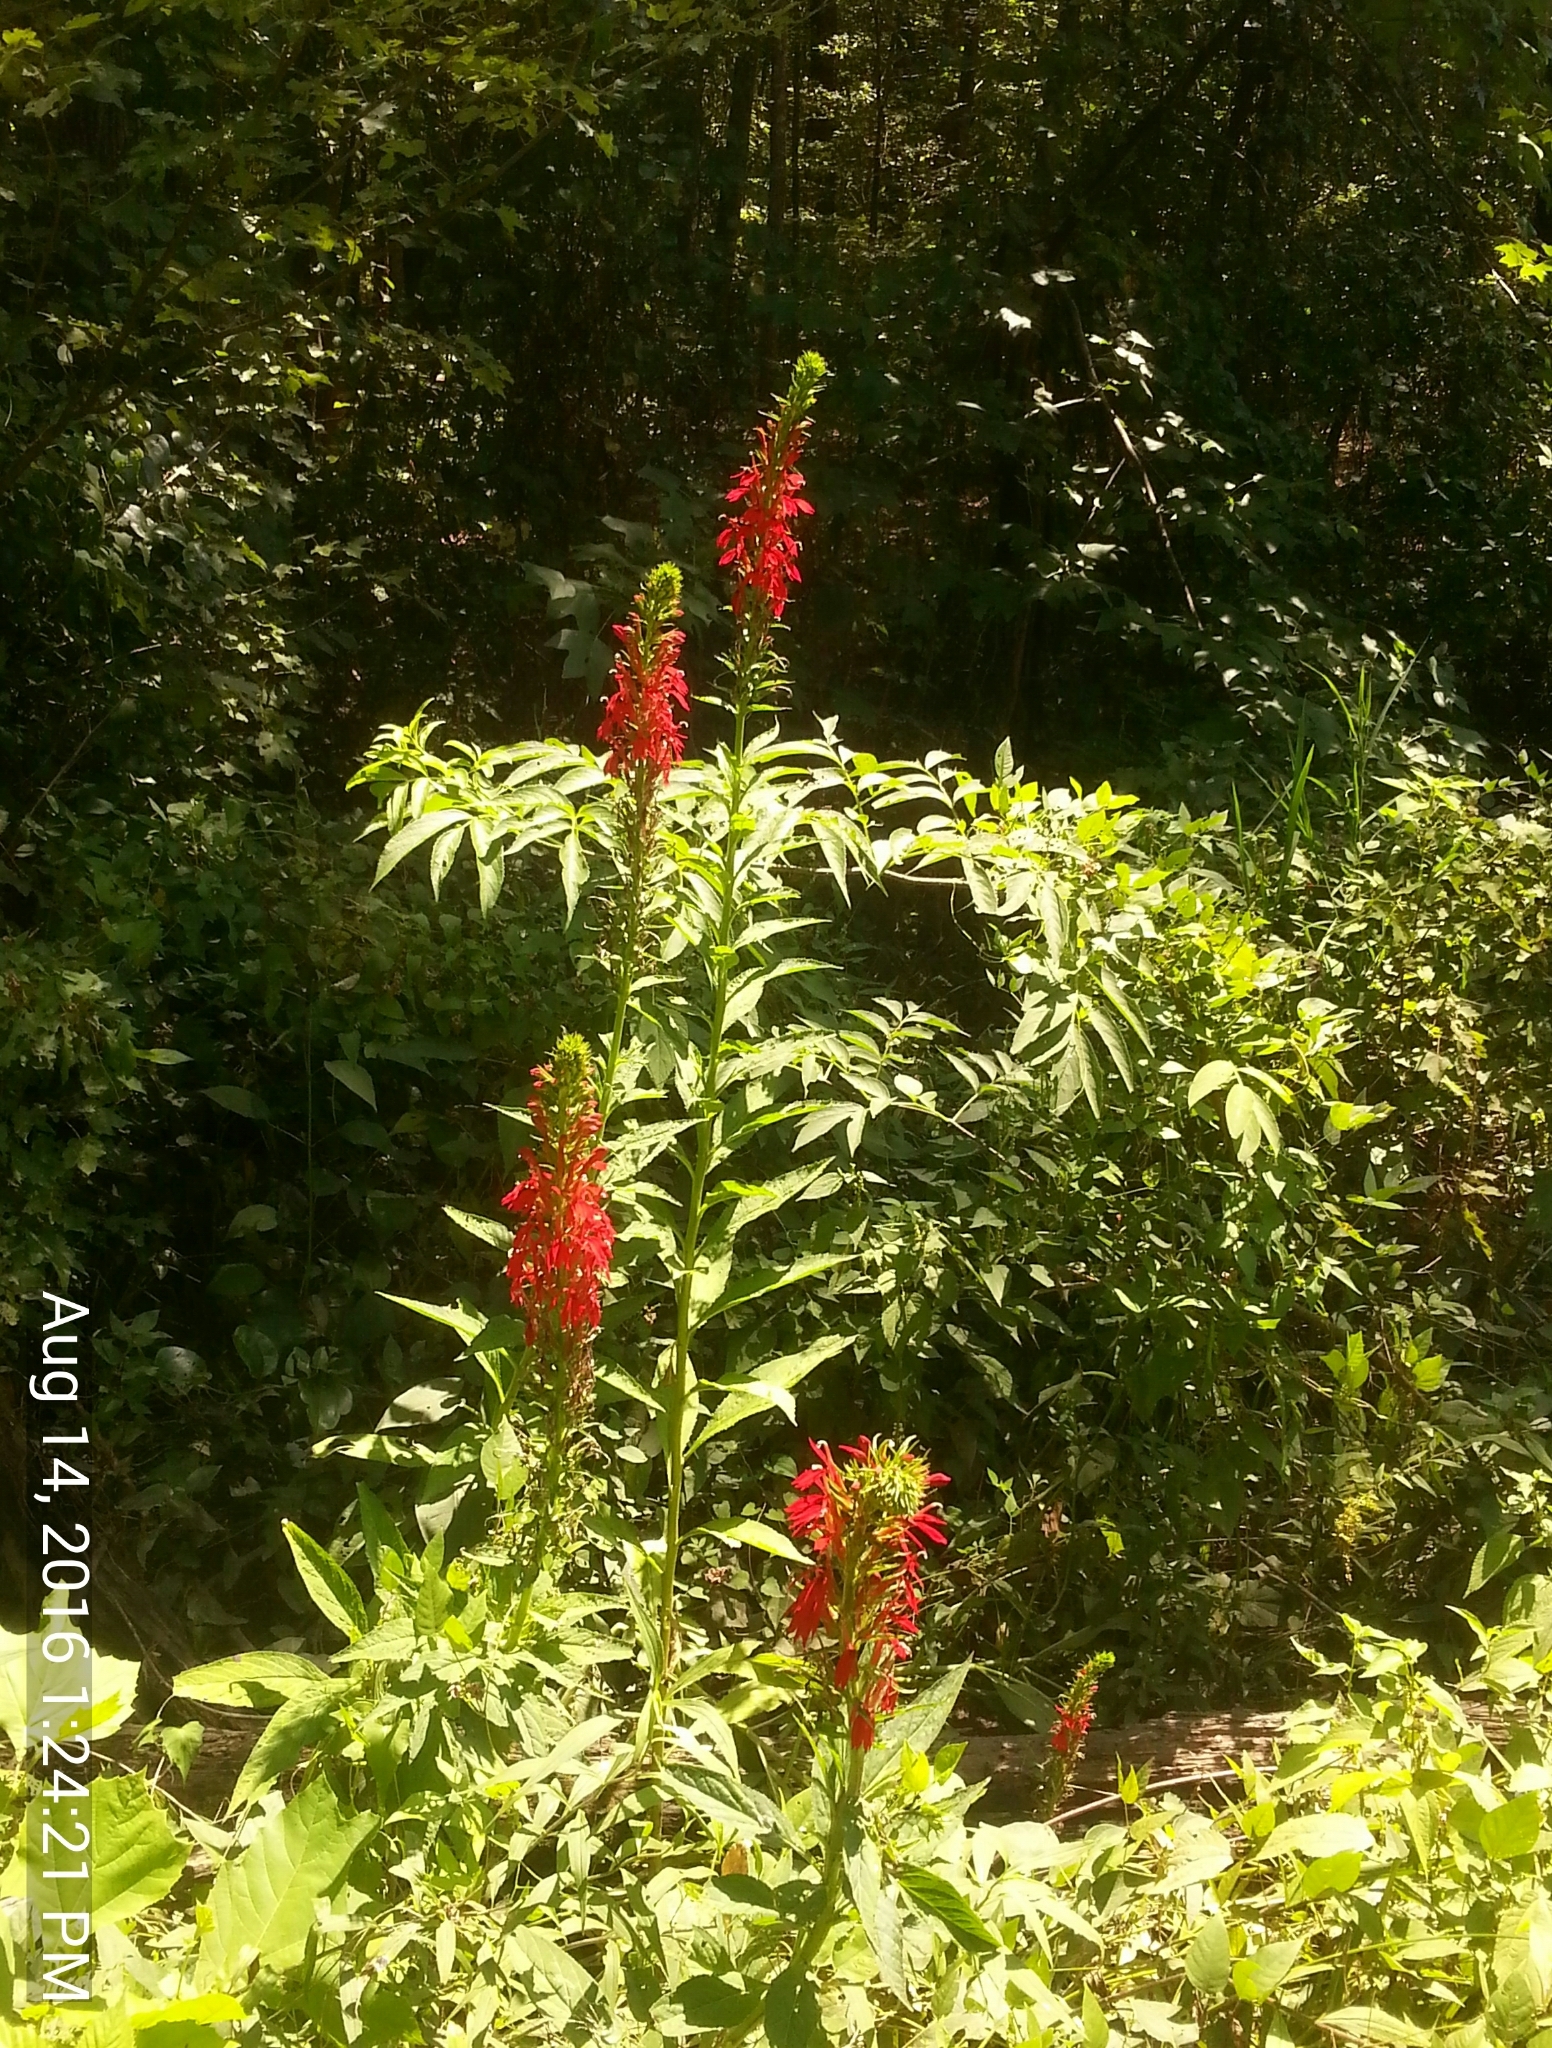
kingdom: Plantae
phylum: Tracheophyta
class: Magnoliopsida
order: Asterales
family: Campanulaceae
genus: Lobelia
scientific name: Lobelia cardinalis
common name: Cardinal flower
